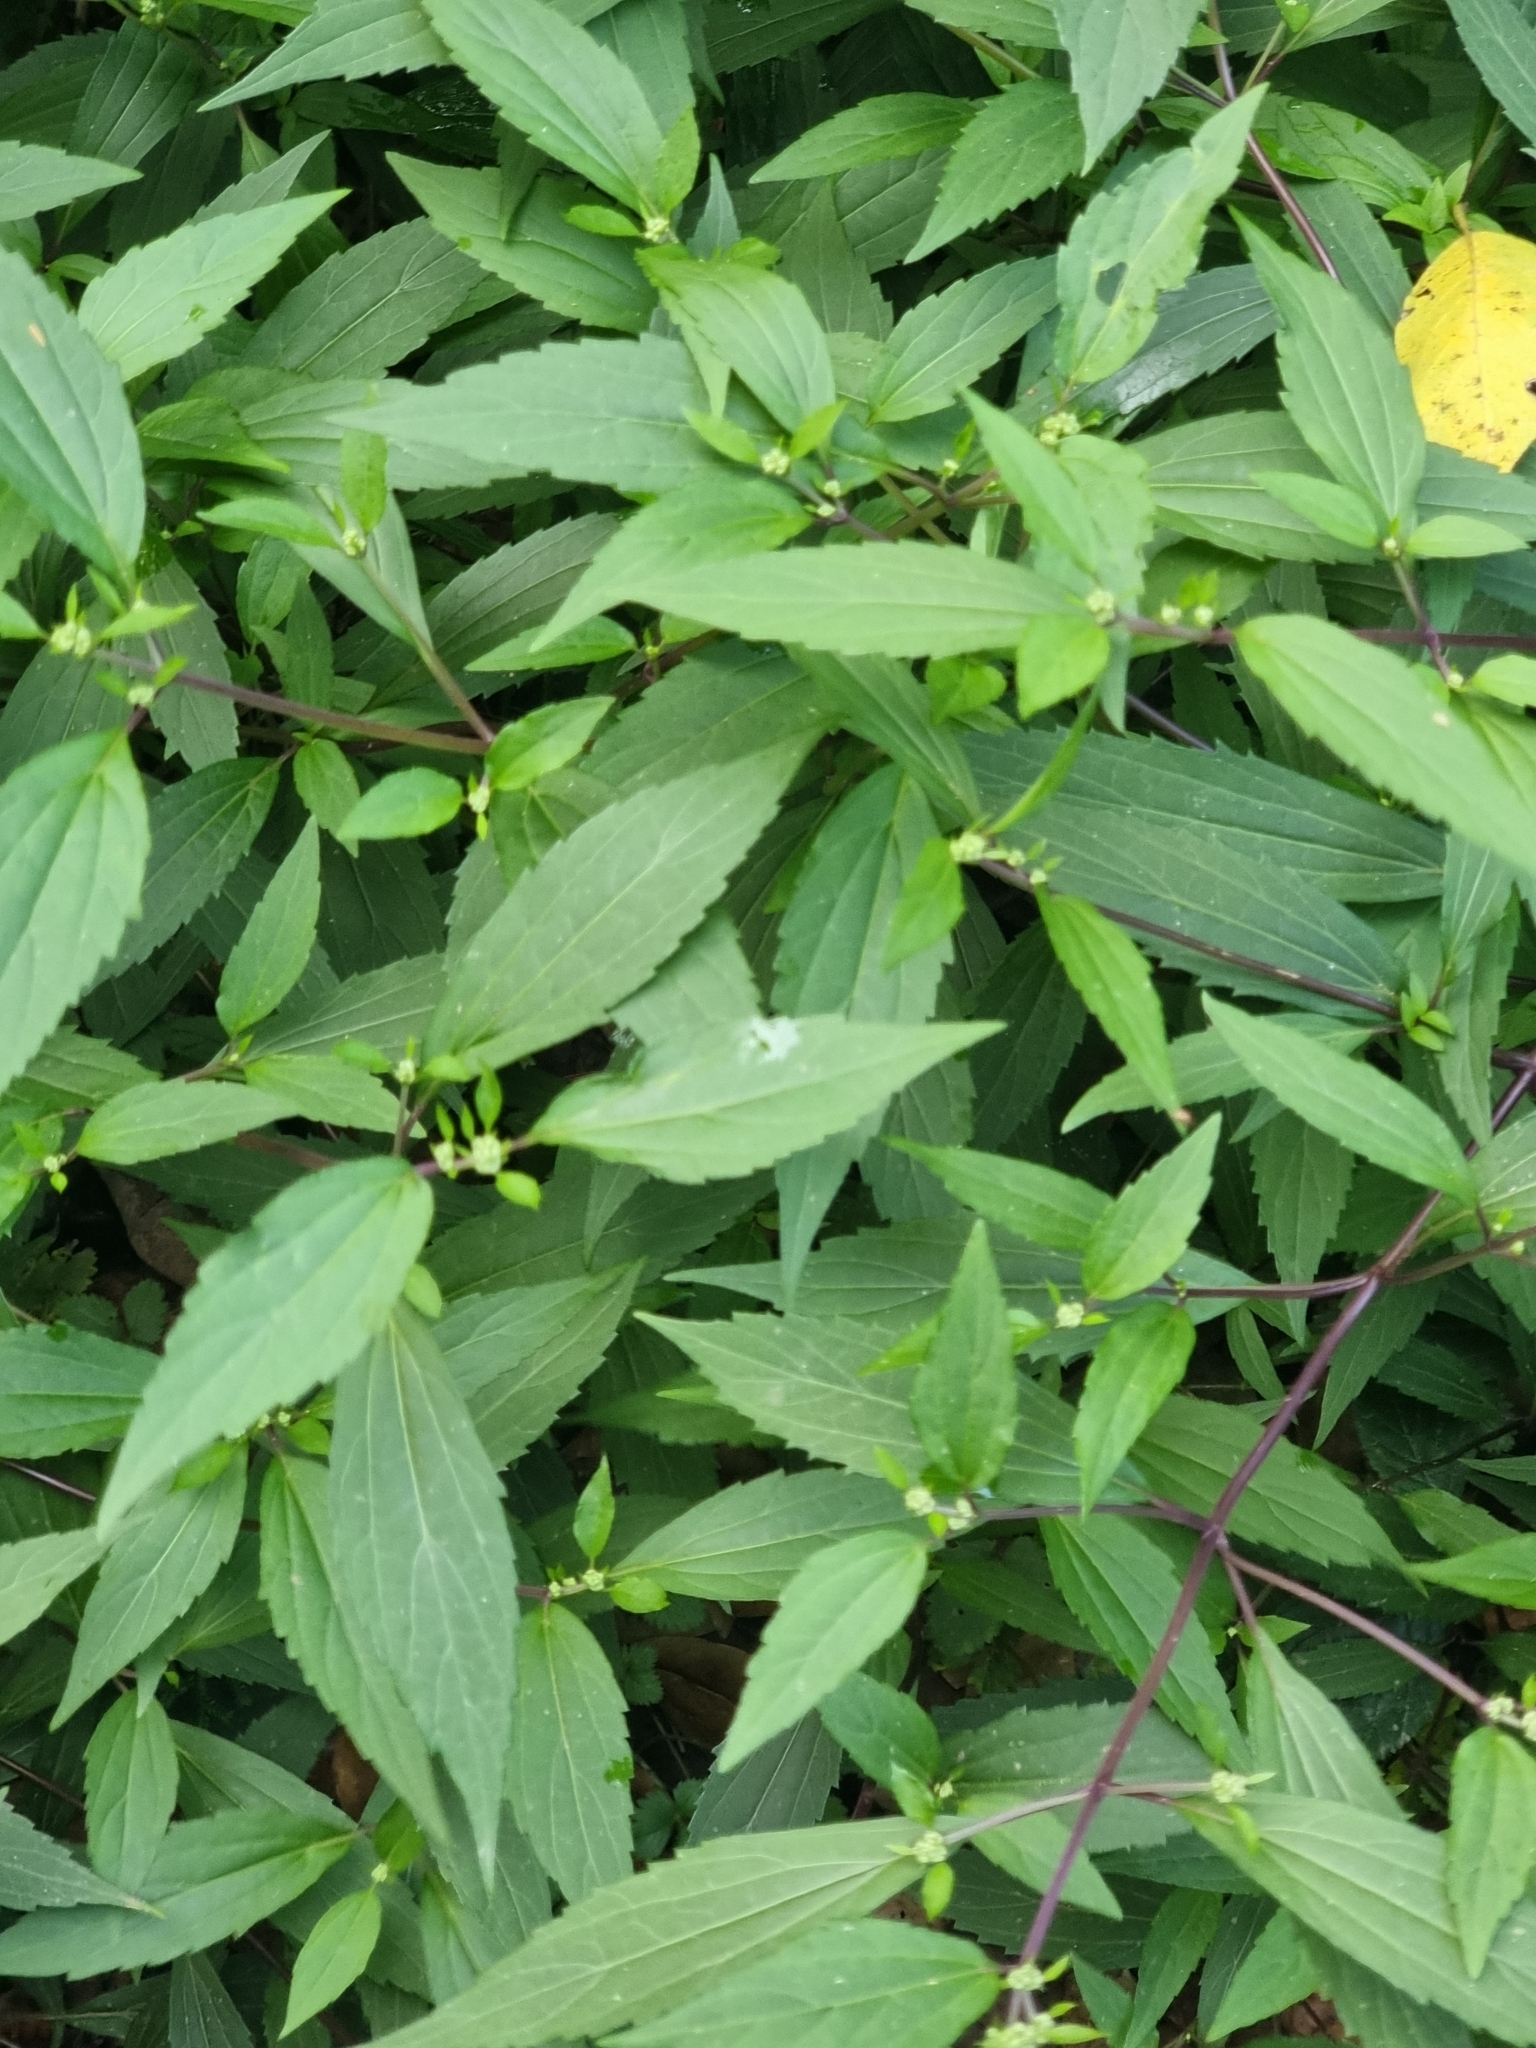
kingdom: Plantae
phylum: Tracheophyta
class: Magnoliopsida
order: Asterales
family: Asteraceae
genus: Ageratina
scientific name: Ageratina riparia
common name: Creeping croftonweed
